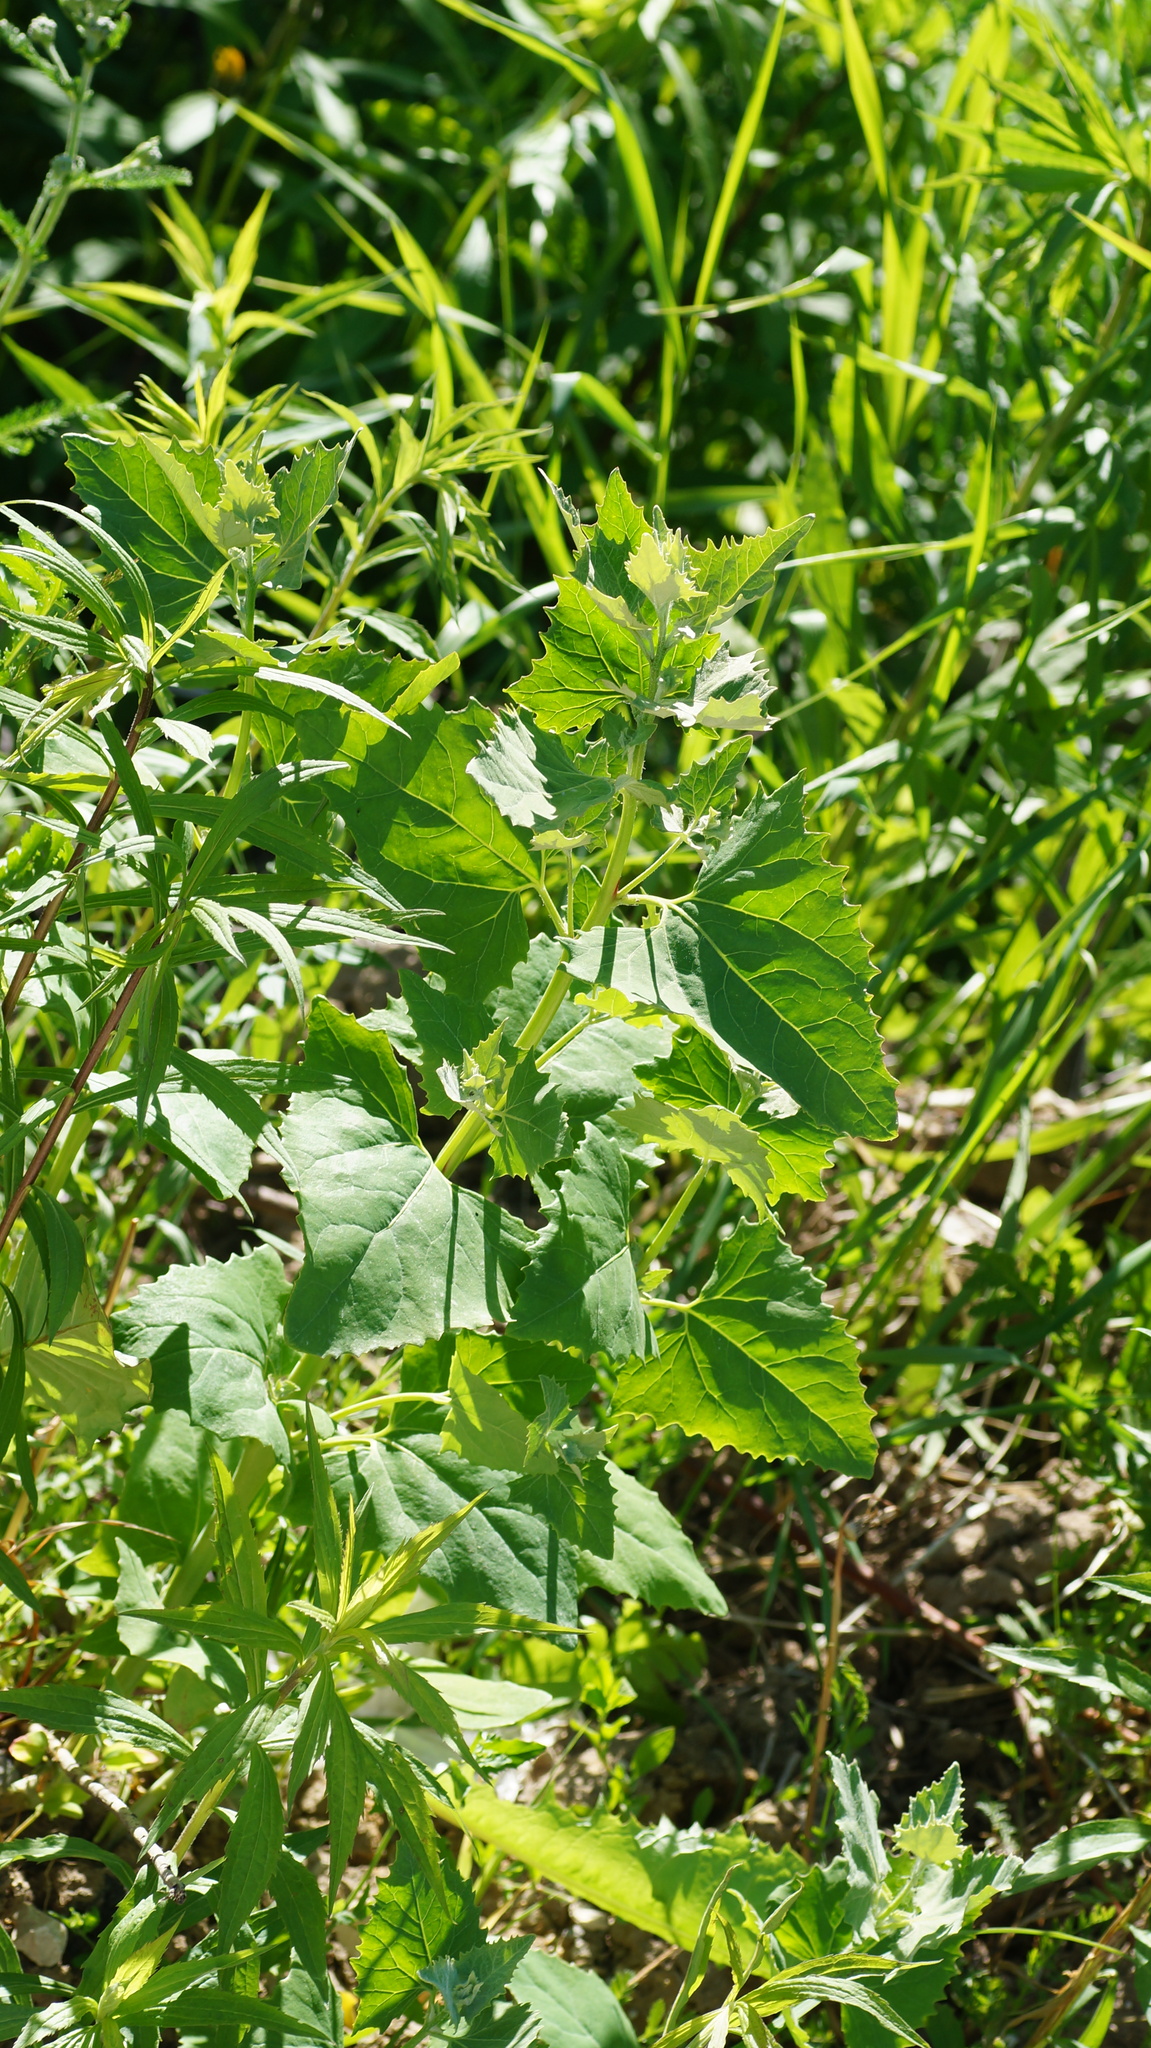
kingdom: Plantae
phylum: Tracheophyta
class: Magnoliopsida
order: Caryophyllales
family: Amaranthaceae
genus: Atriplex
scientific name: Atriplex sagittata
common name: Purple orache
